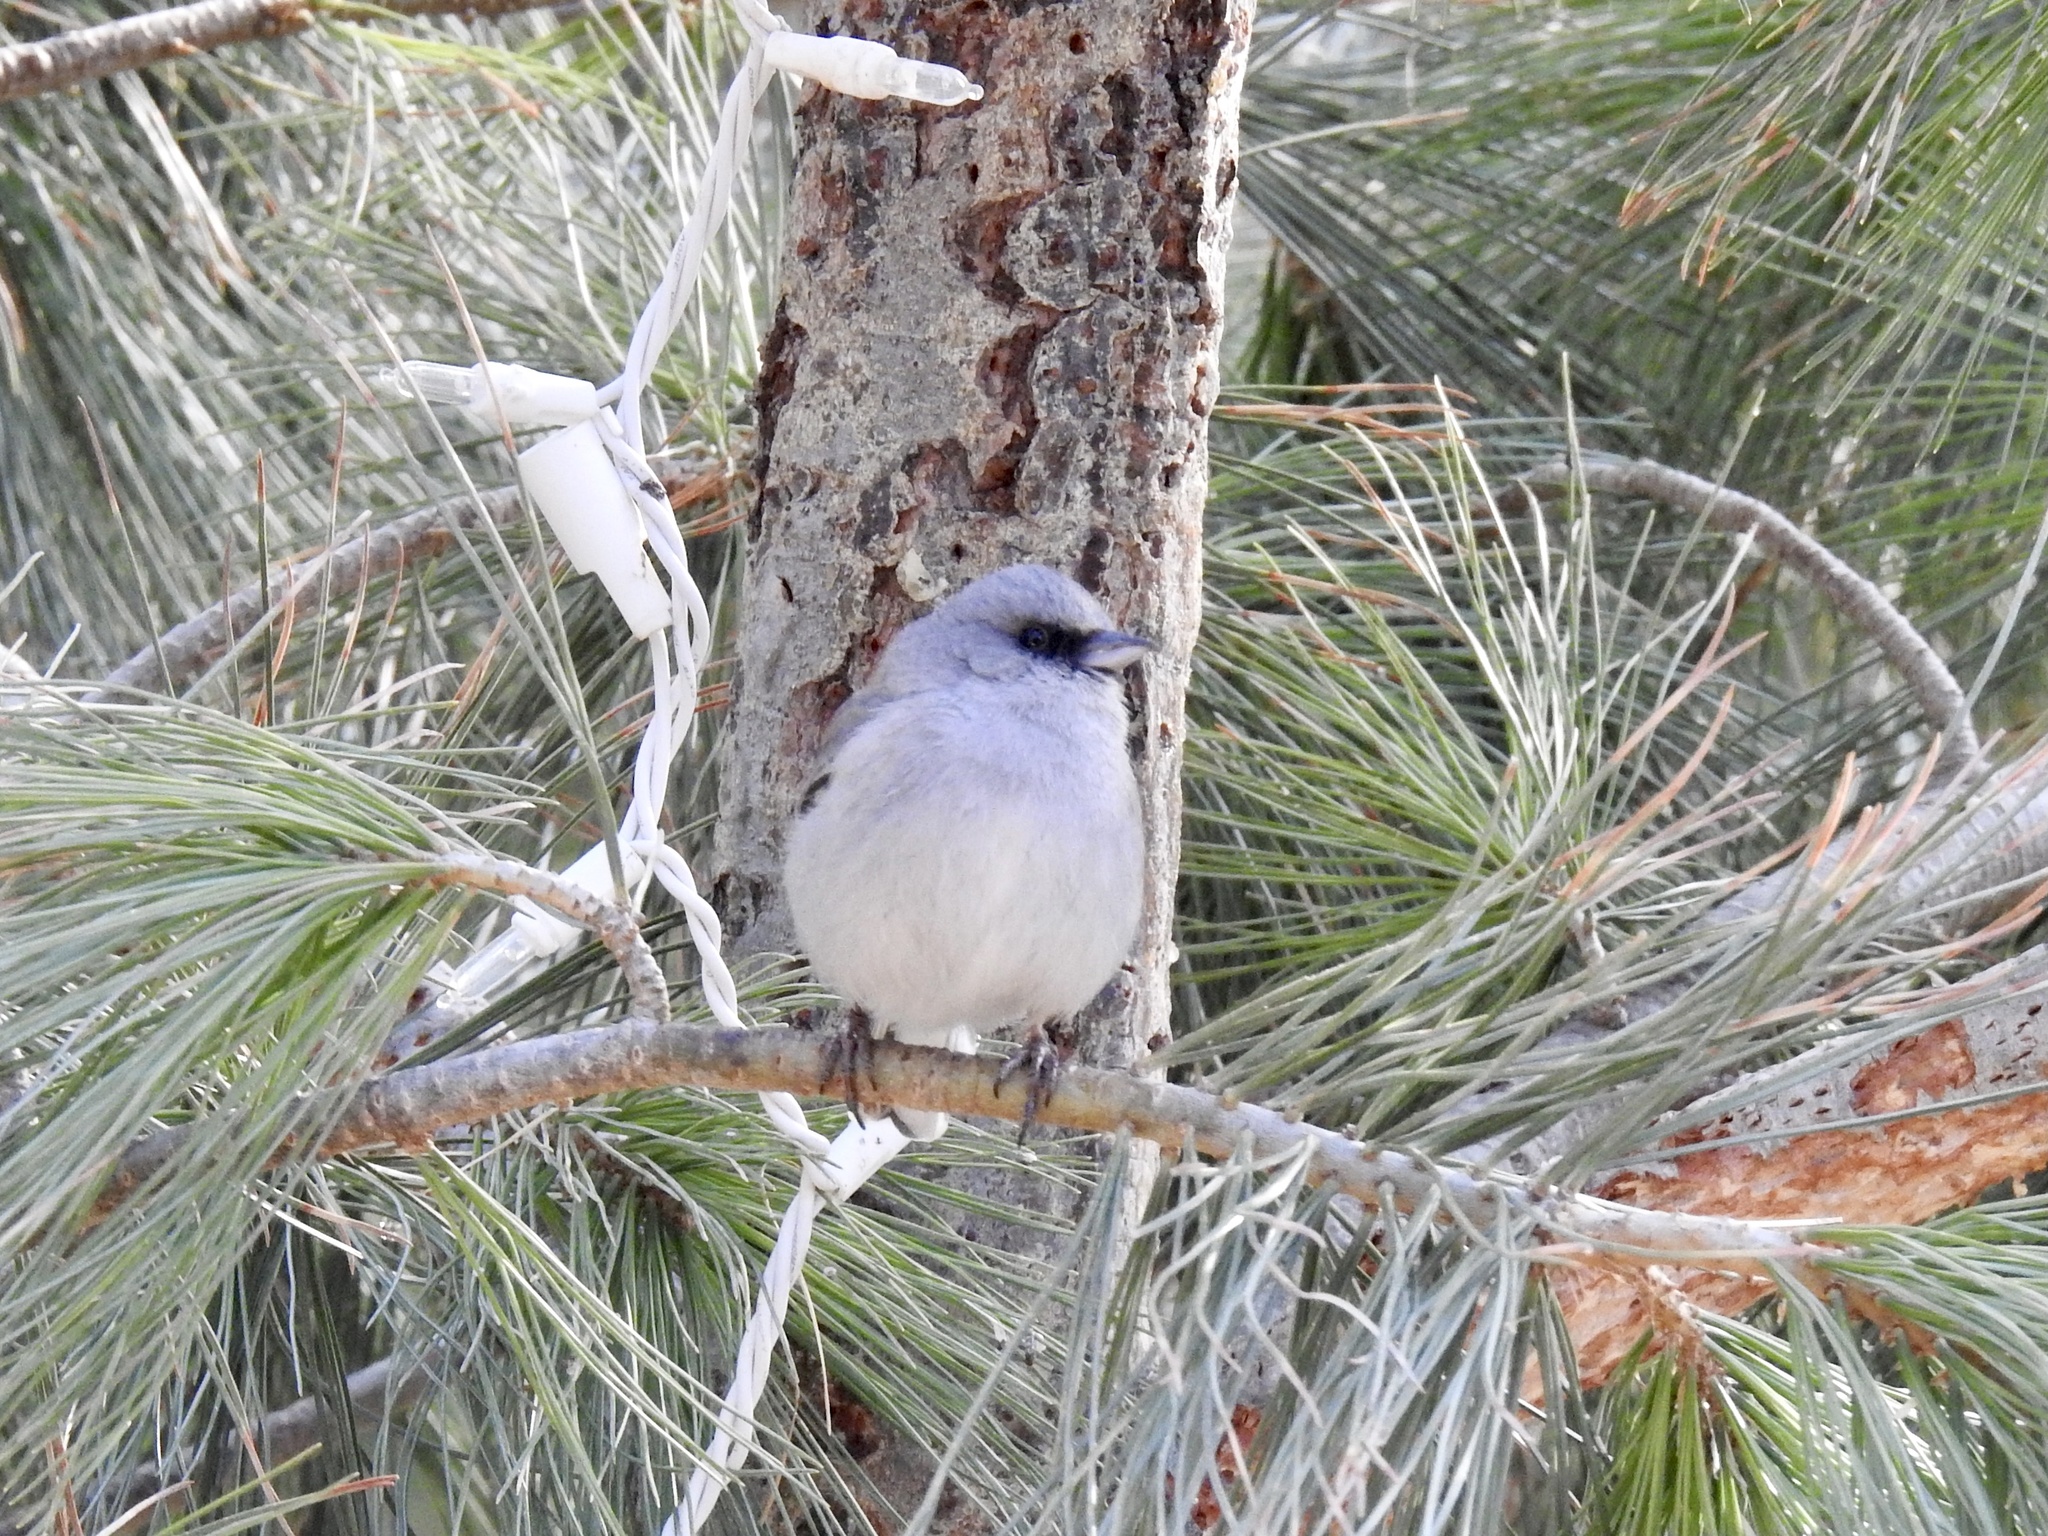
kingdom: Animalia
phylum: Chordata
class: Aves
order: Passeriformes
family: Passerellidae
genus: Junco
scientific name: Junco hyemalis
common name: Dark-eyed junco
